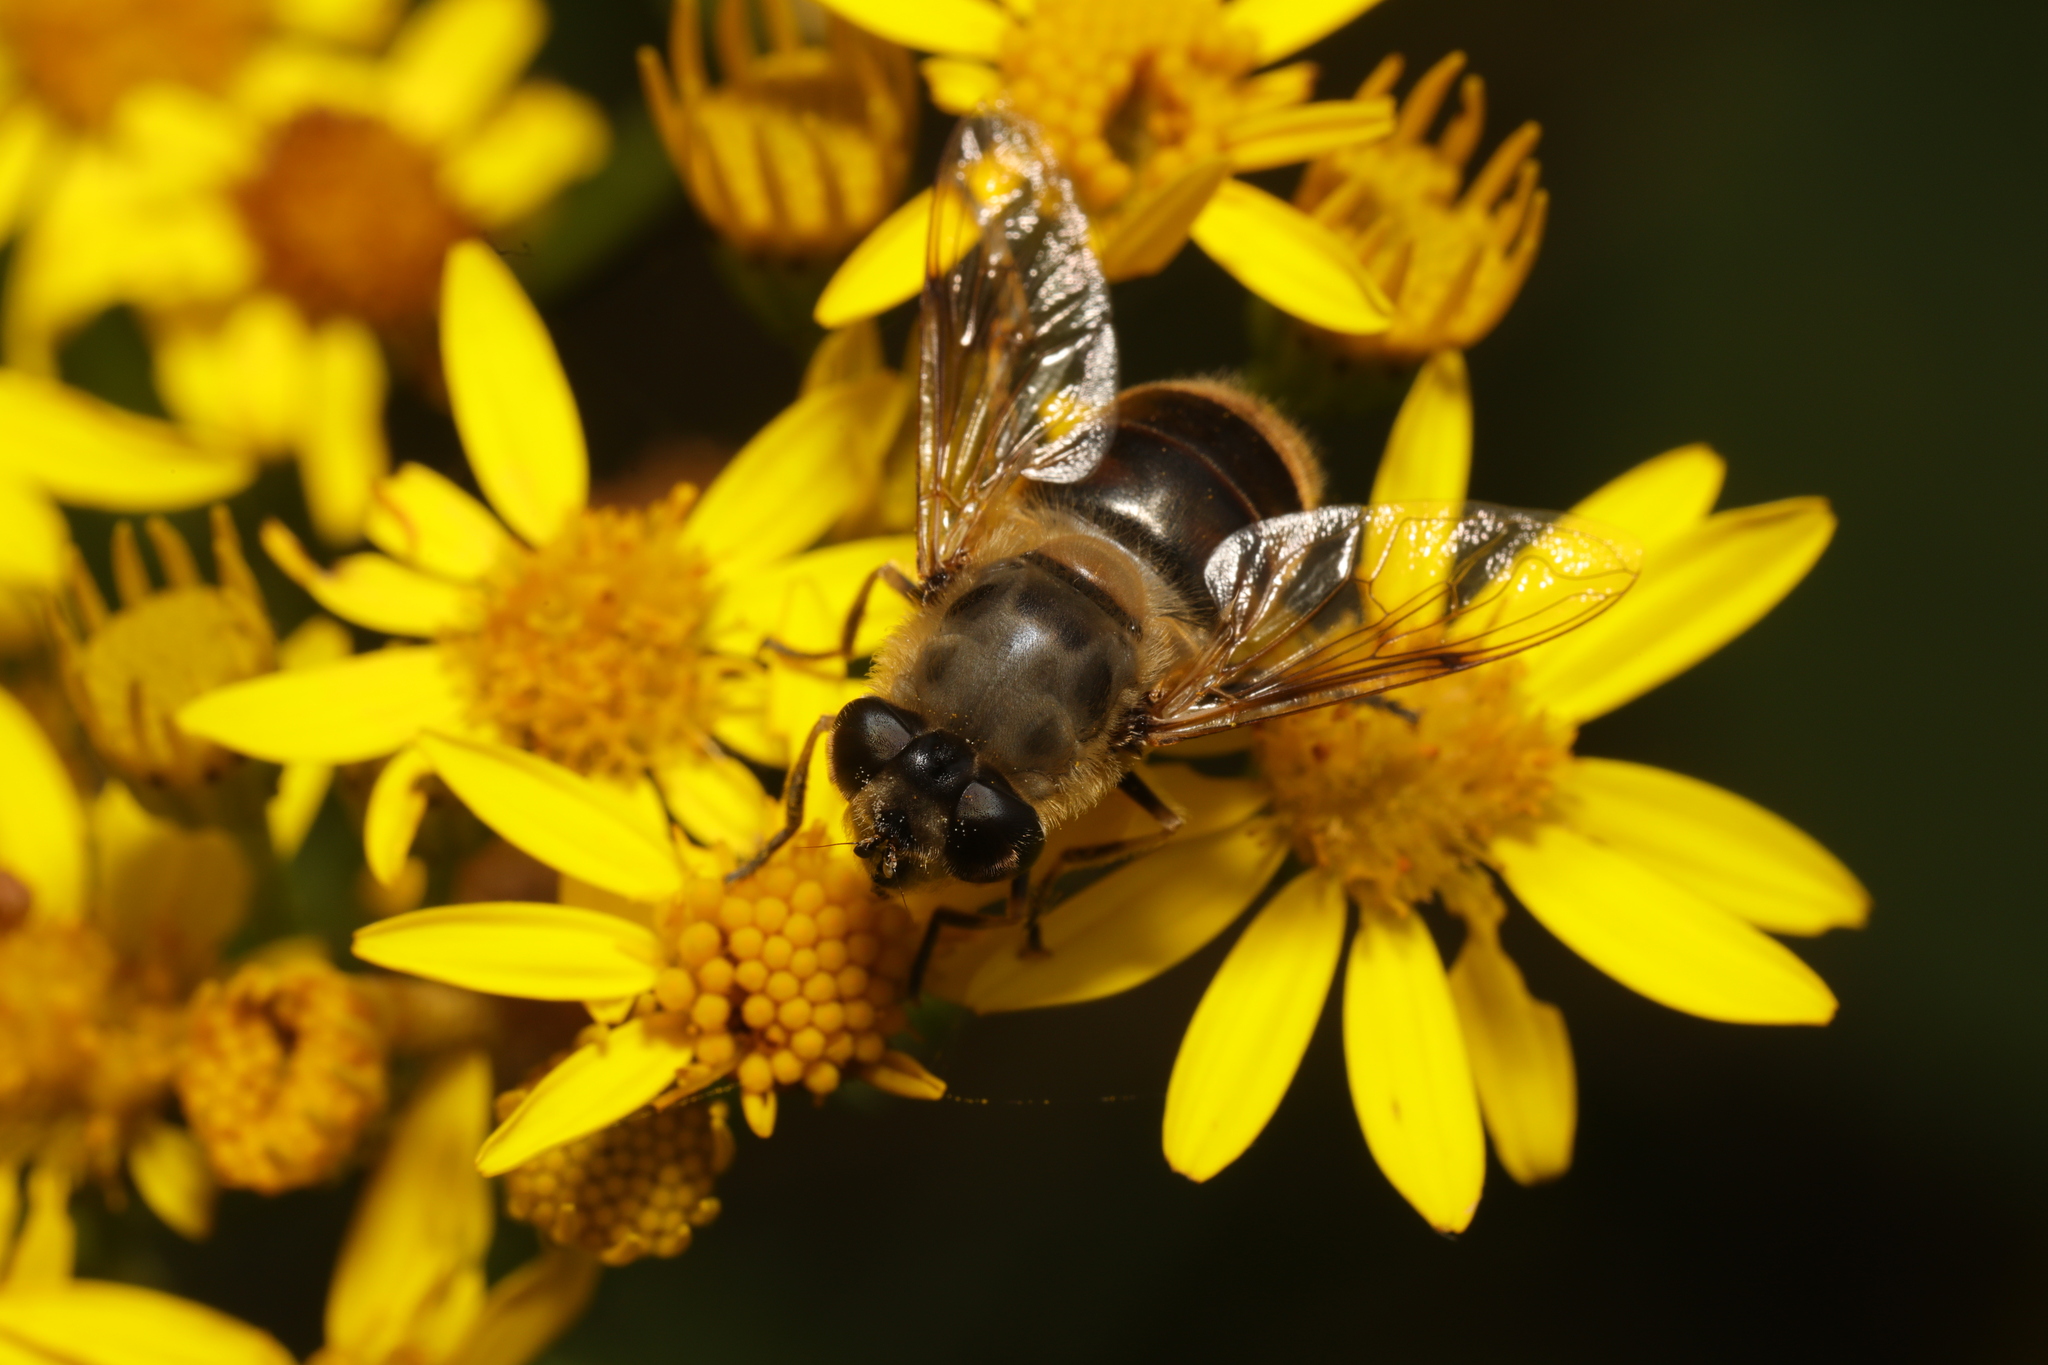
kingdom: Animalia
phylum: Arthropoda
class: Insecta
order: Diptera
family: Syrphidae
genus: Eristalis
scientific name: Eristalis tenax
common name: Drone fly
